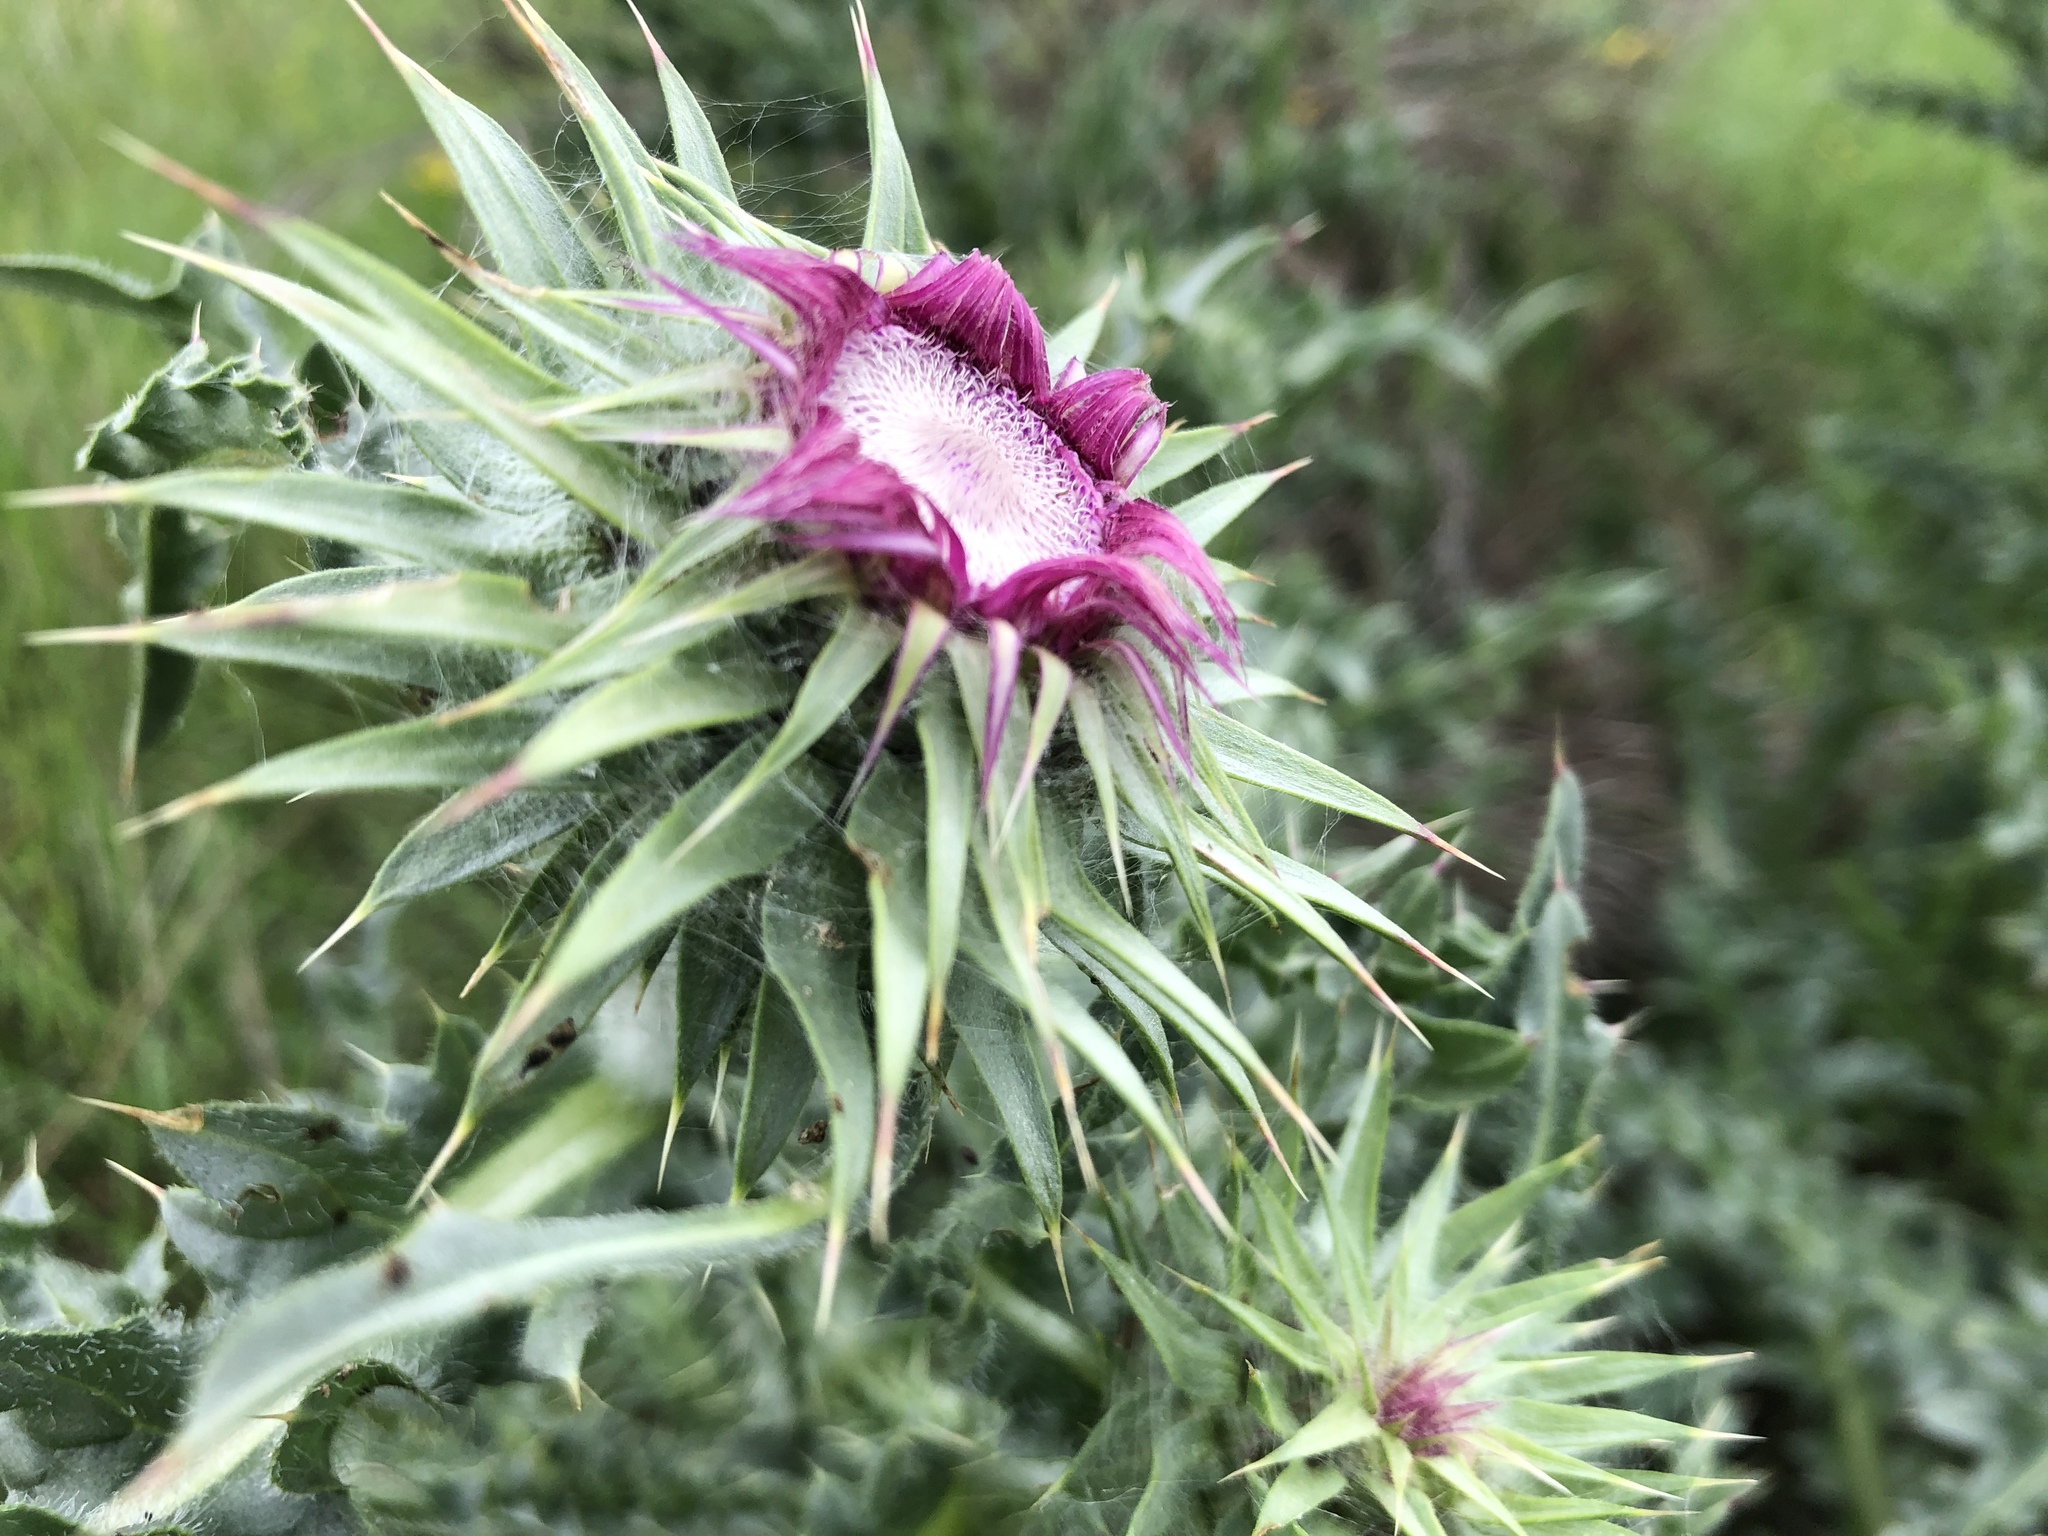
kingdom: Plantae
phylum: Tracheophyta
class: Magnoliopsida
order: Asterales
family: Asteraceae
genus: Carduus
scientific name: Carduus nutans
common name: Musk thistle
